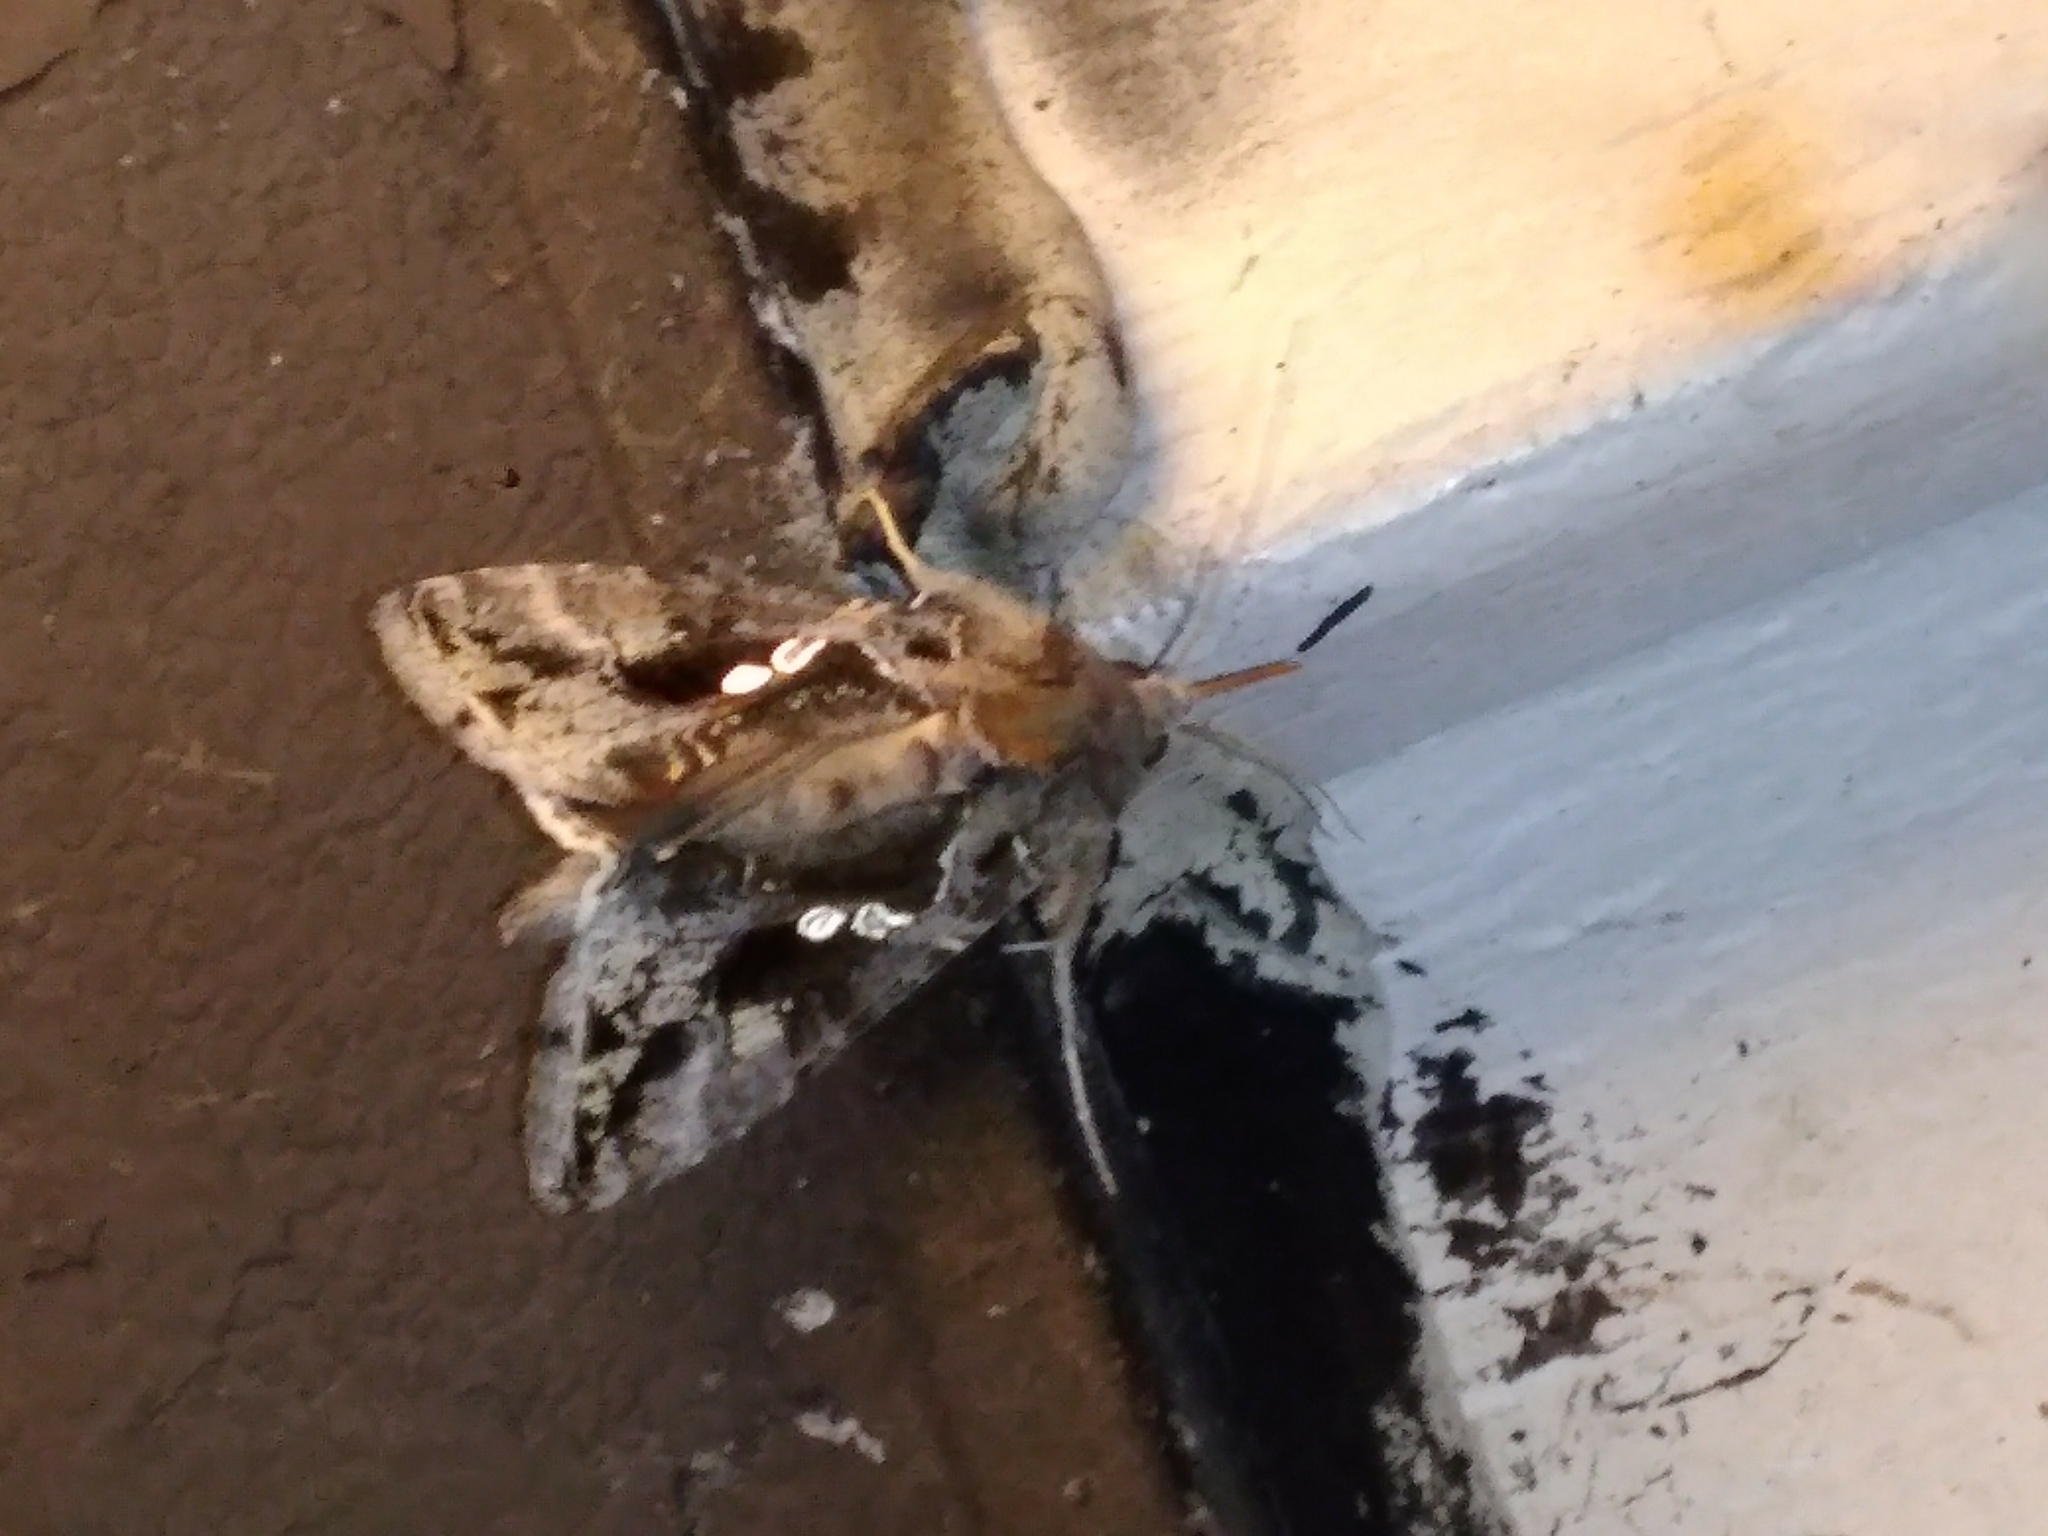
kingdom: Animalia
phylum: Arthropoda
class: Insecta
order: Lepidoptera
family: Noctuidae
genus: Chrysodeixis
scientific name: Chrysodeixis includens
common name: Cutworm moth
